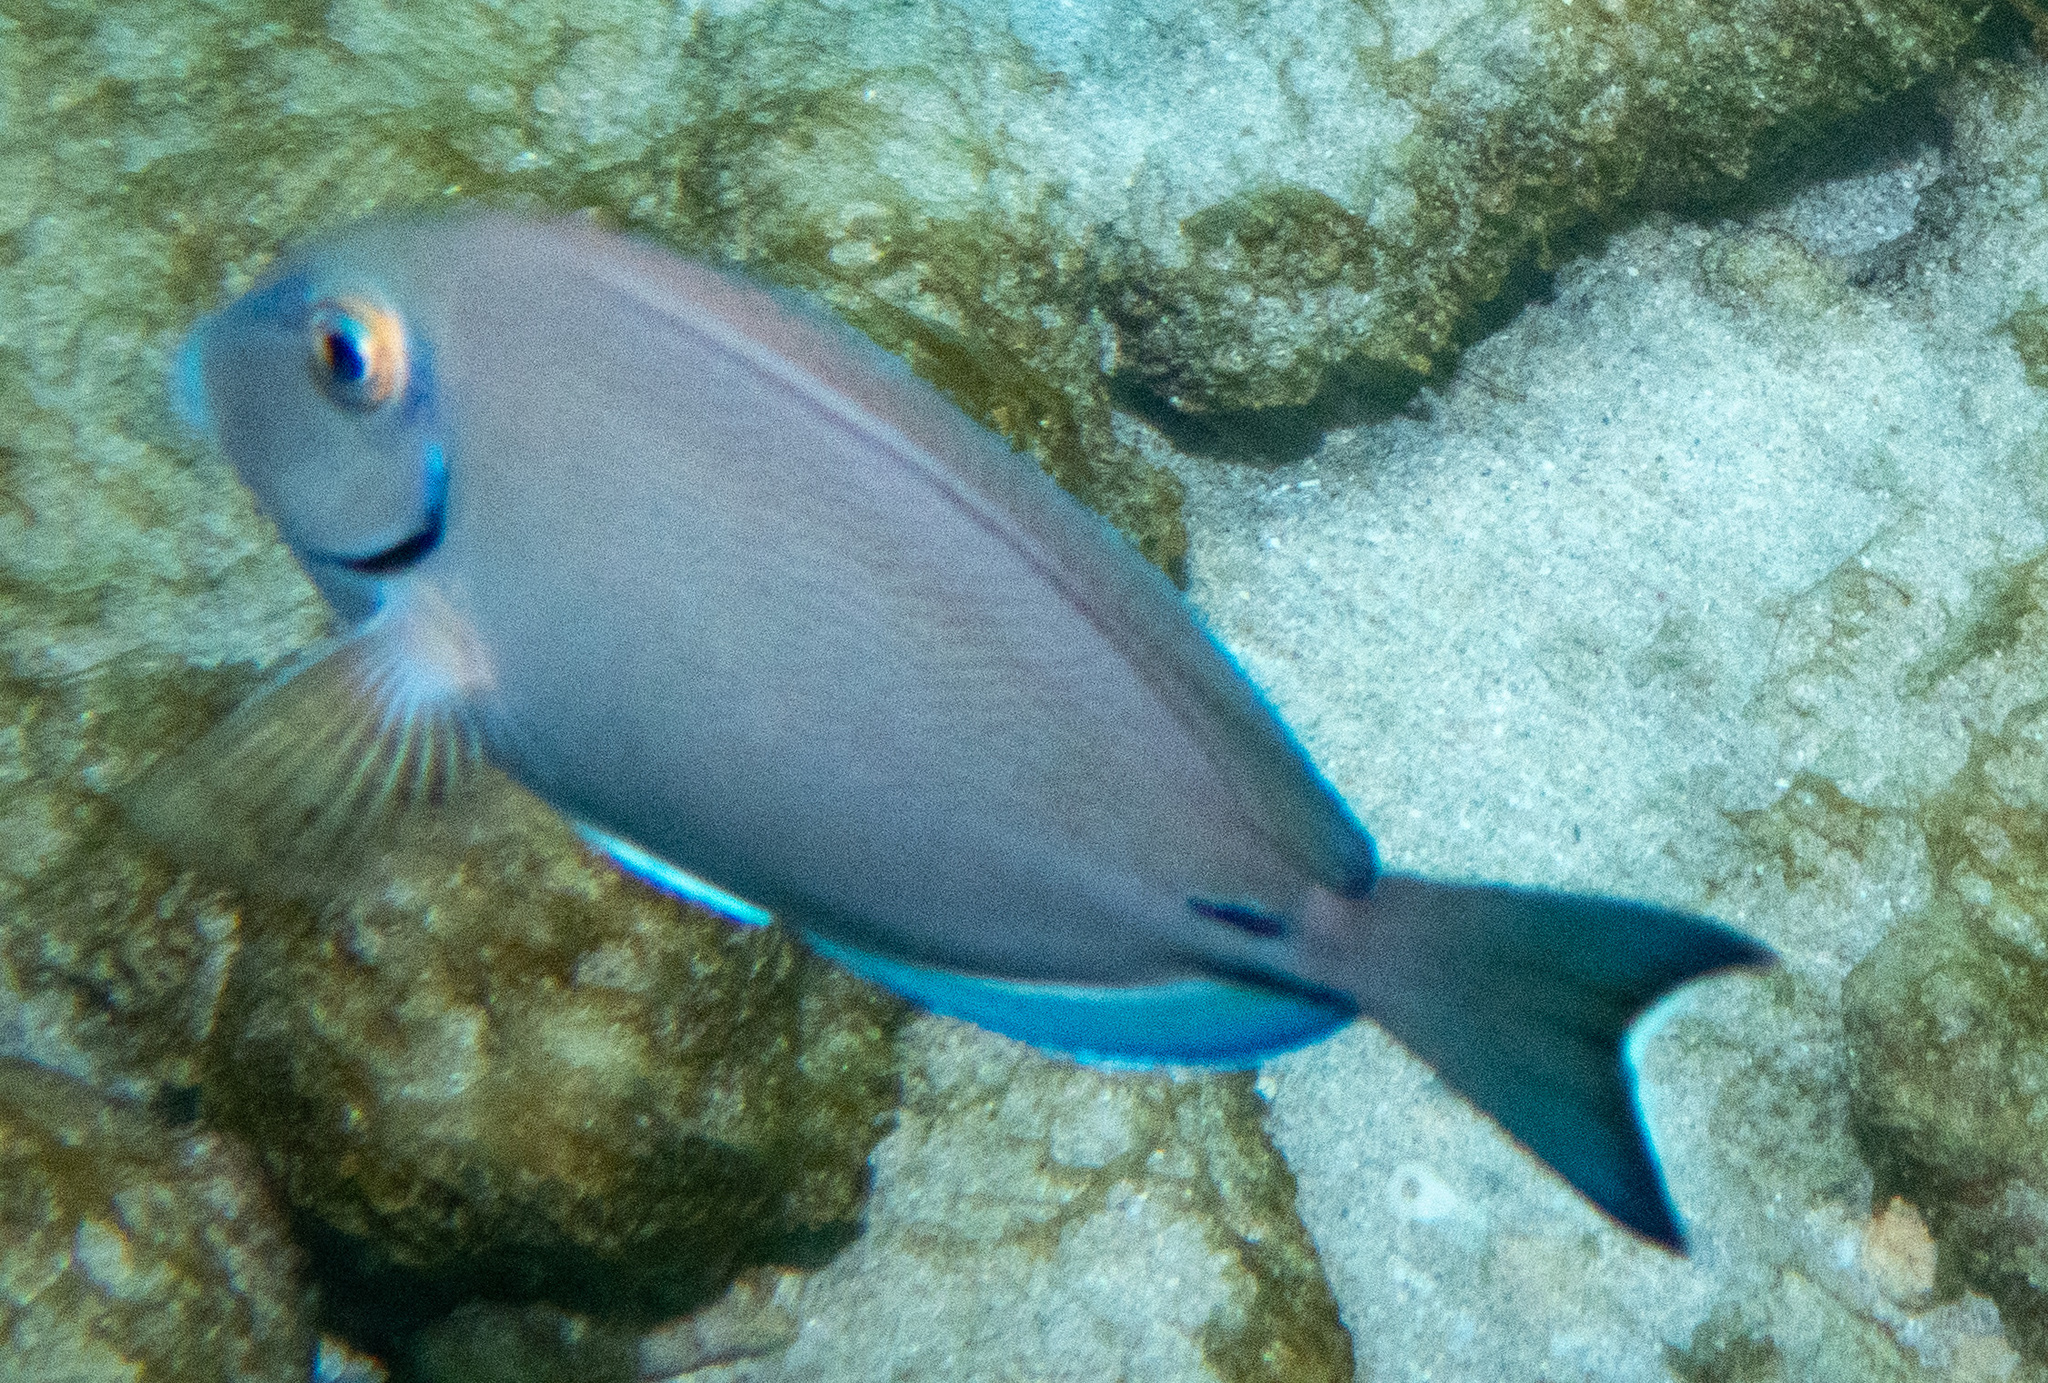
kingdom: Animalia
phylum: Chordata
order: Perciformes
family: Acanthuridae
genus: Acanthurus
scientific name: Acanthurus bahianus
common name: Ocean surgeon
